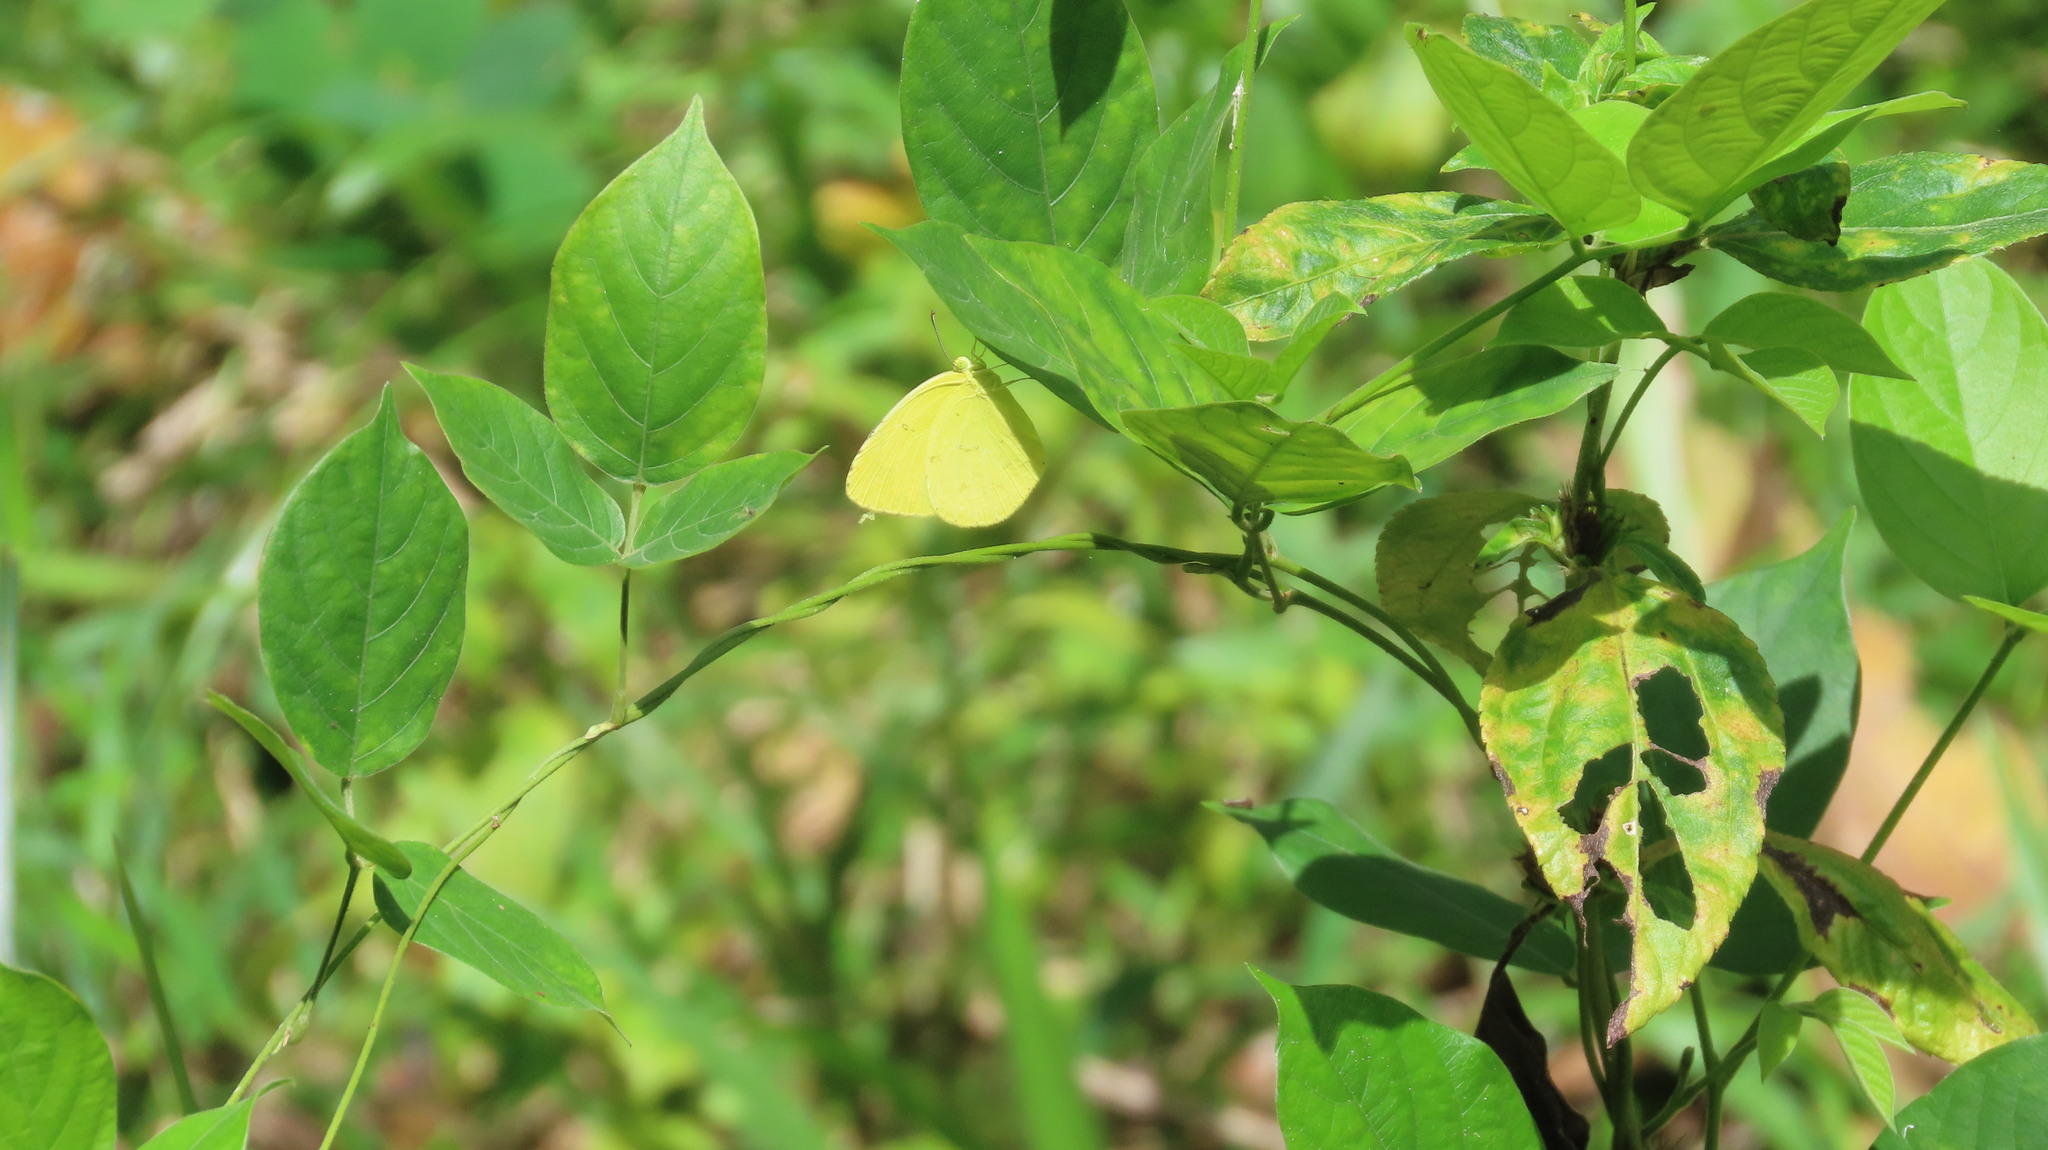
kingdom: Animalia
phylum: Arthropoda
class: Insecta
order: Lepidoptera
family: Pieridae
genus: Eurema
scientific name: Eurema hecabe
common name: Pale grass yellow
